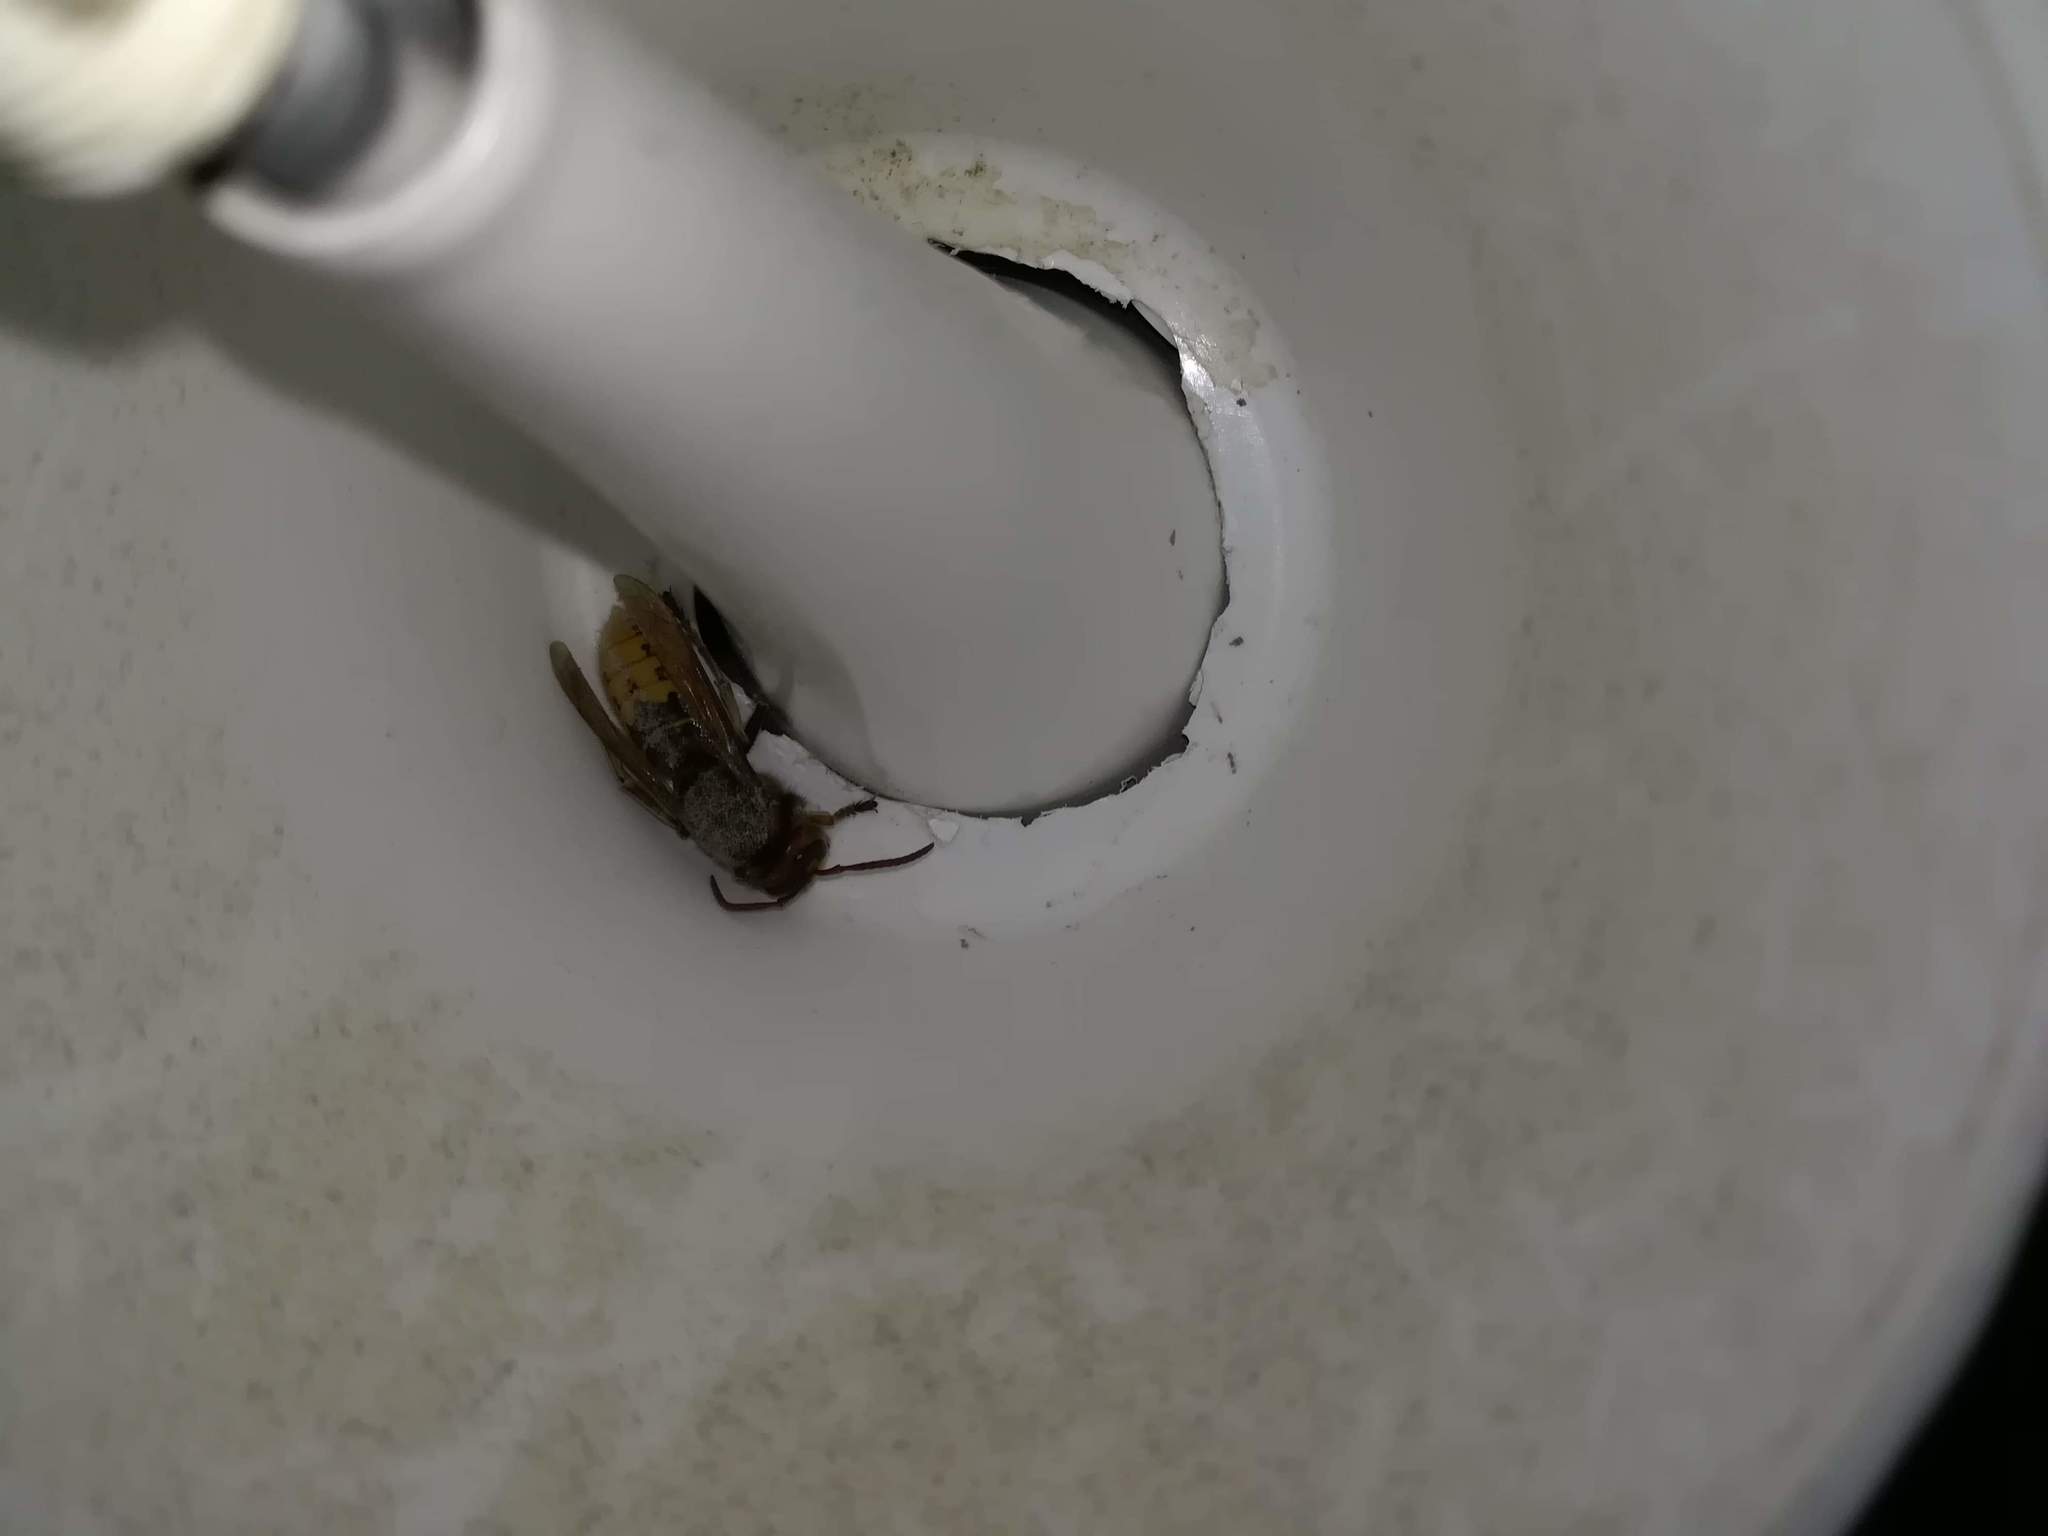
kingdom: Animalia
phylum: Arthropoda
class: Insecta
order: Hymenoptera
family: Vespidae
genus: Vespa
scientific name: Vespa crabro
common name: Hornet
